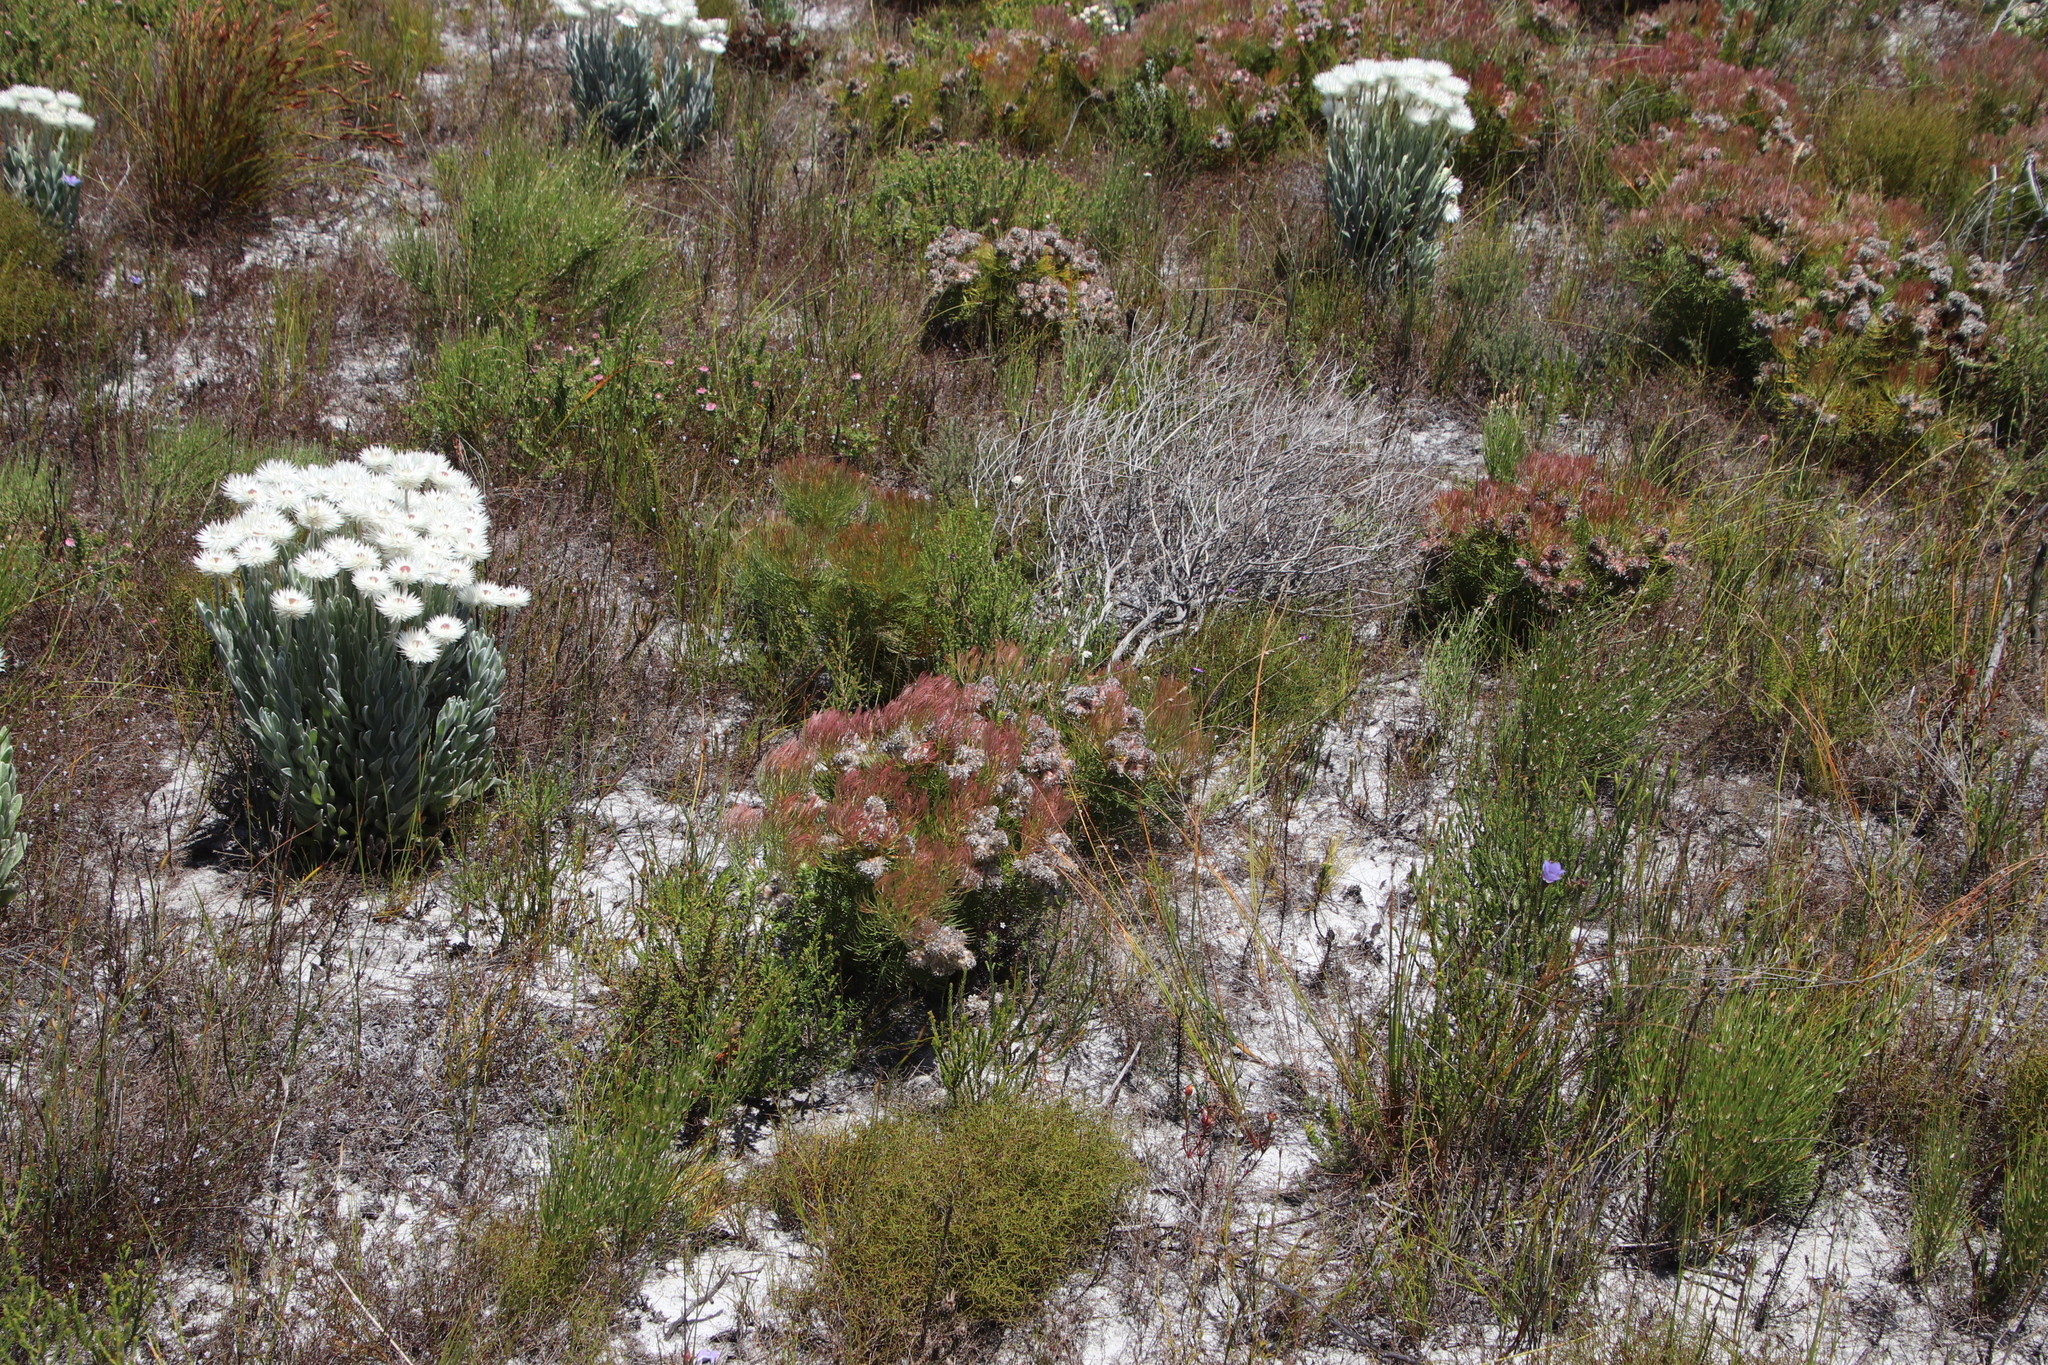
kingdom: Plantae
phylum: Tracheophyta
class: Magnoliopsida
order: Proteales
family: Proteaceae
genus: Serruria
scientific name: Serruria glomerata
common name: Cluster spiderhead
